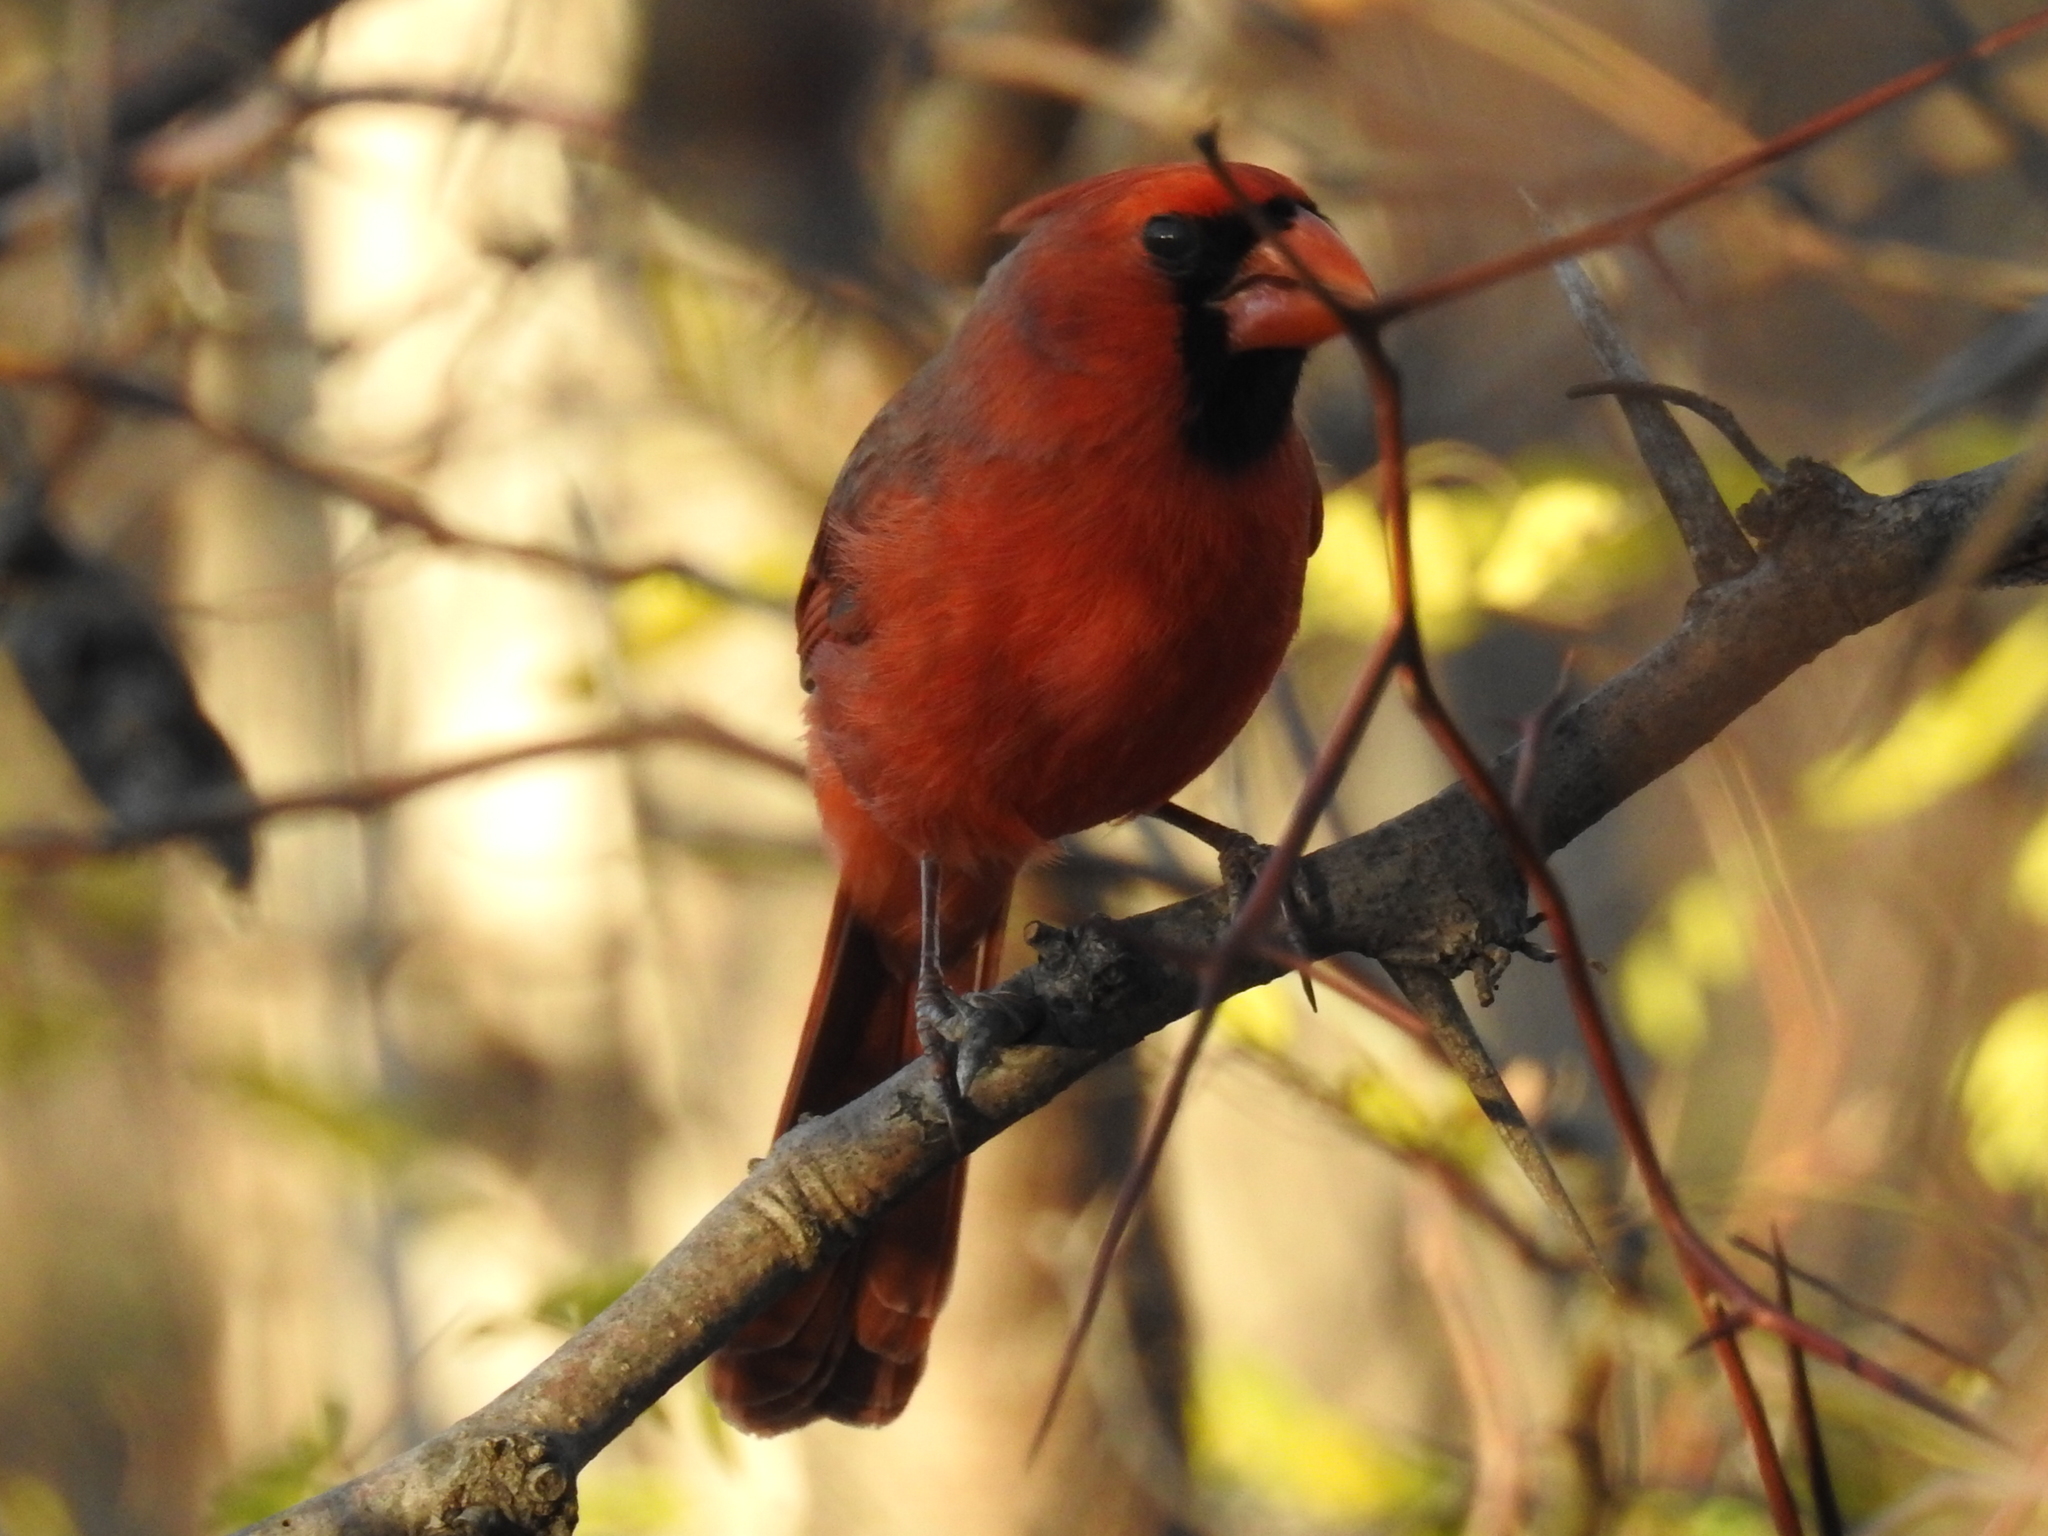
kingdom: Animalia
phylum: Chordata
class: Aves
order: Passeriformes
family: Cardinalidae
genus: Cardinalis
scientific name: Cardinalis cardinalis
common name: Northern cardinal
